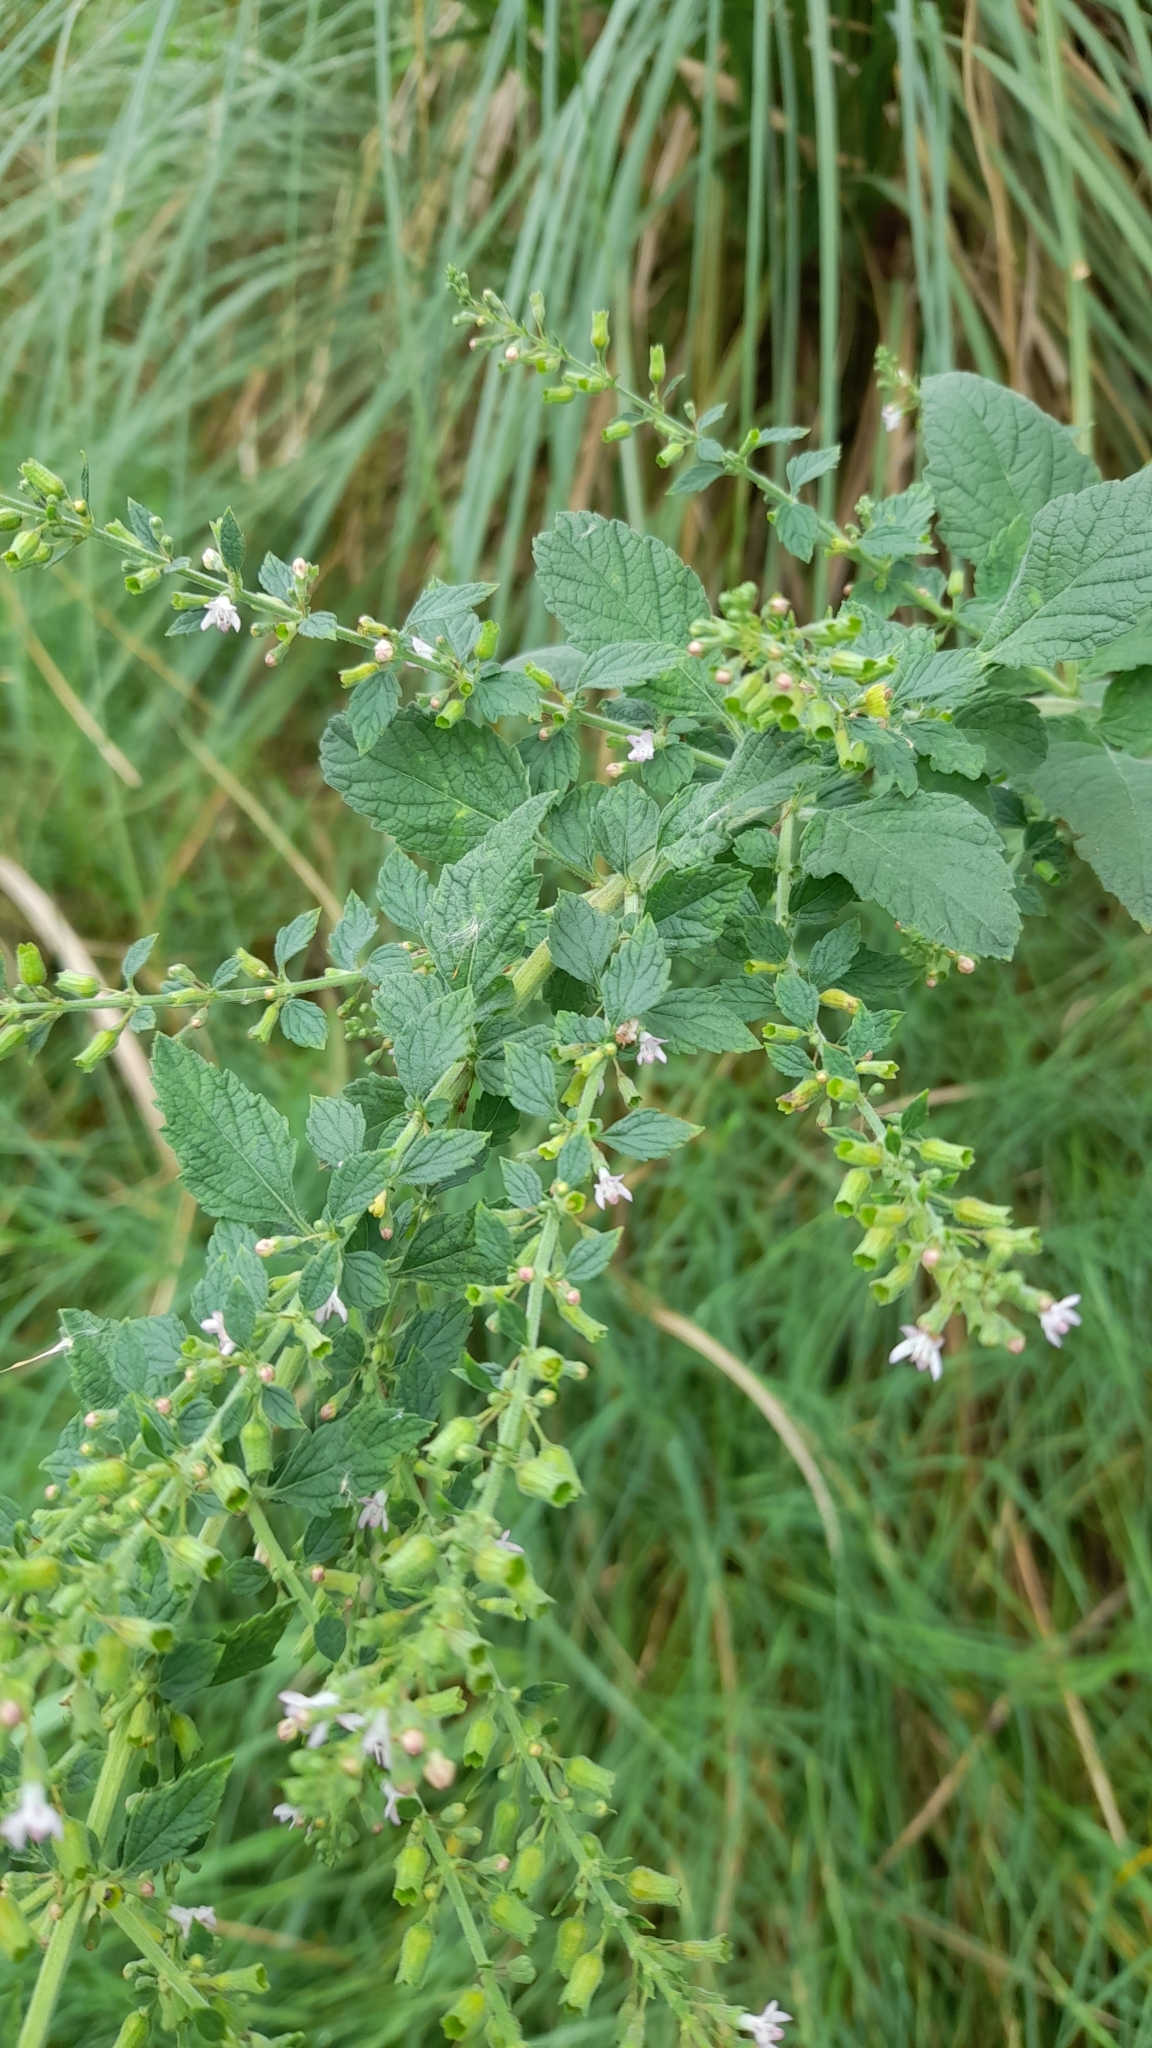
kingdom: Plantae
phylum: Tracheophyta
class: Magnoliopsida
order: Lamiales
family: Lamiaceae
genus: Cantinoa
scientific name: Cantinoa mutabilis
